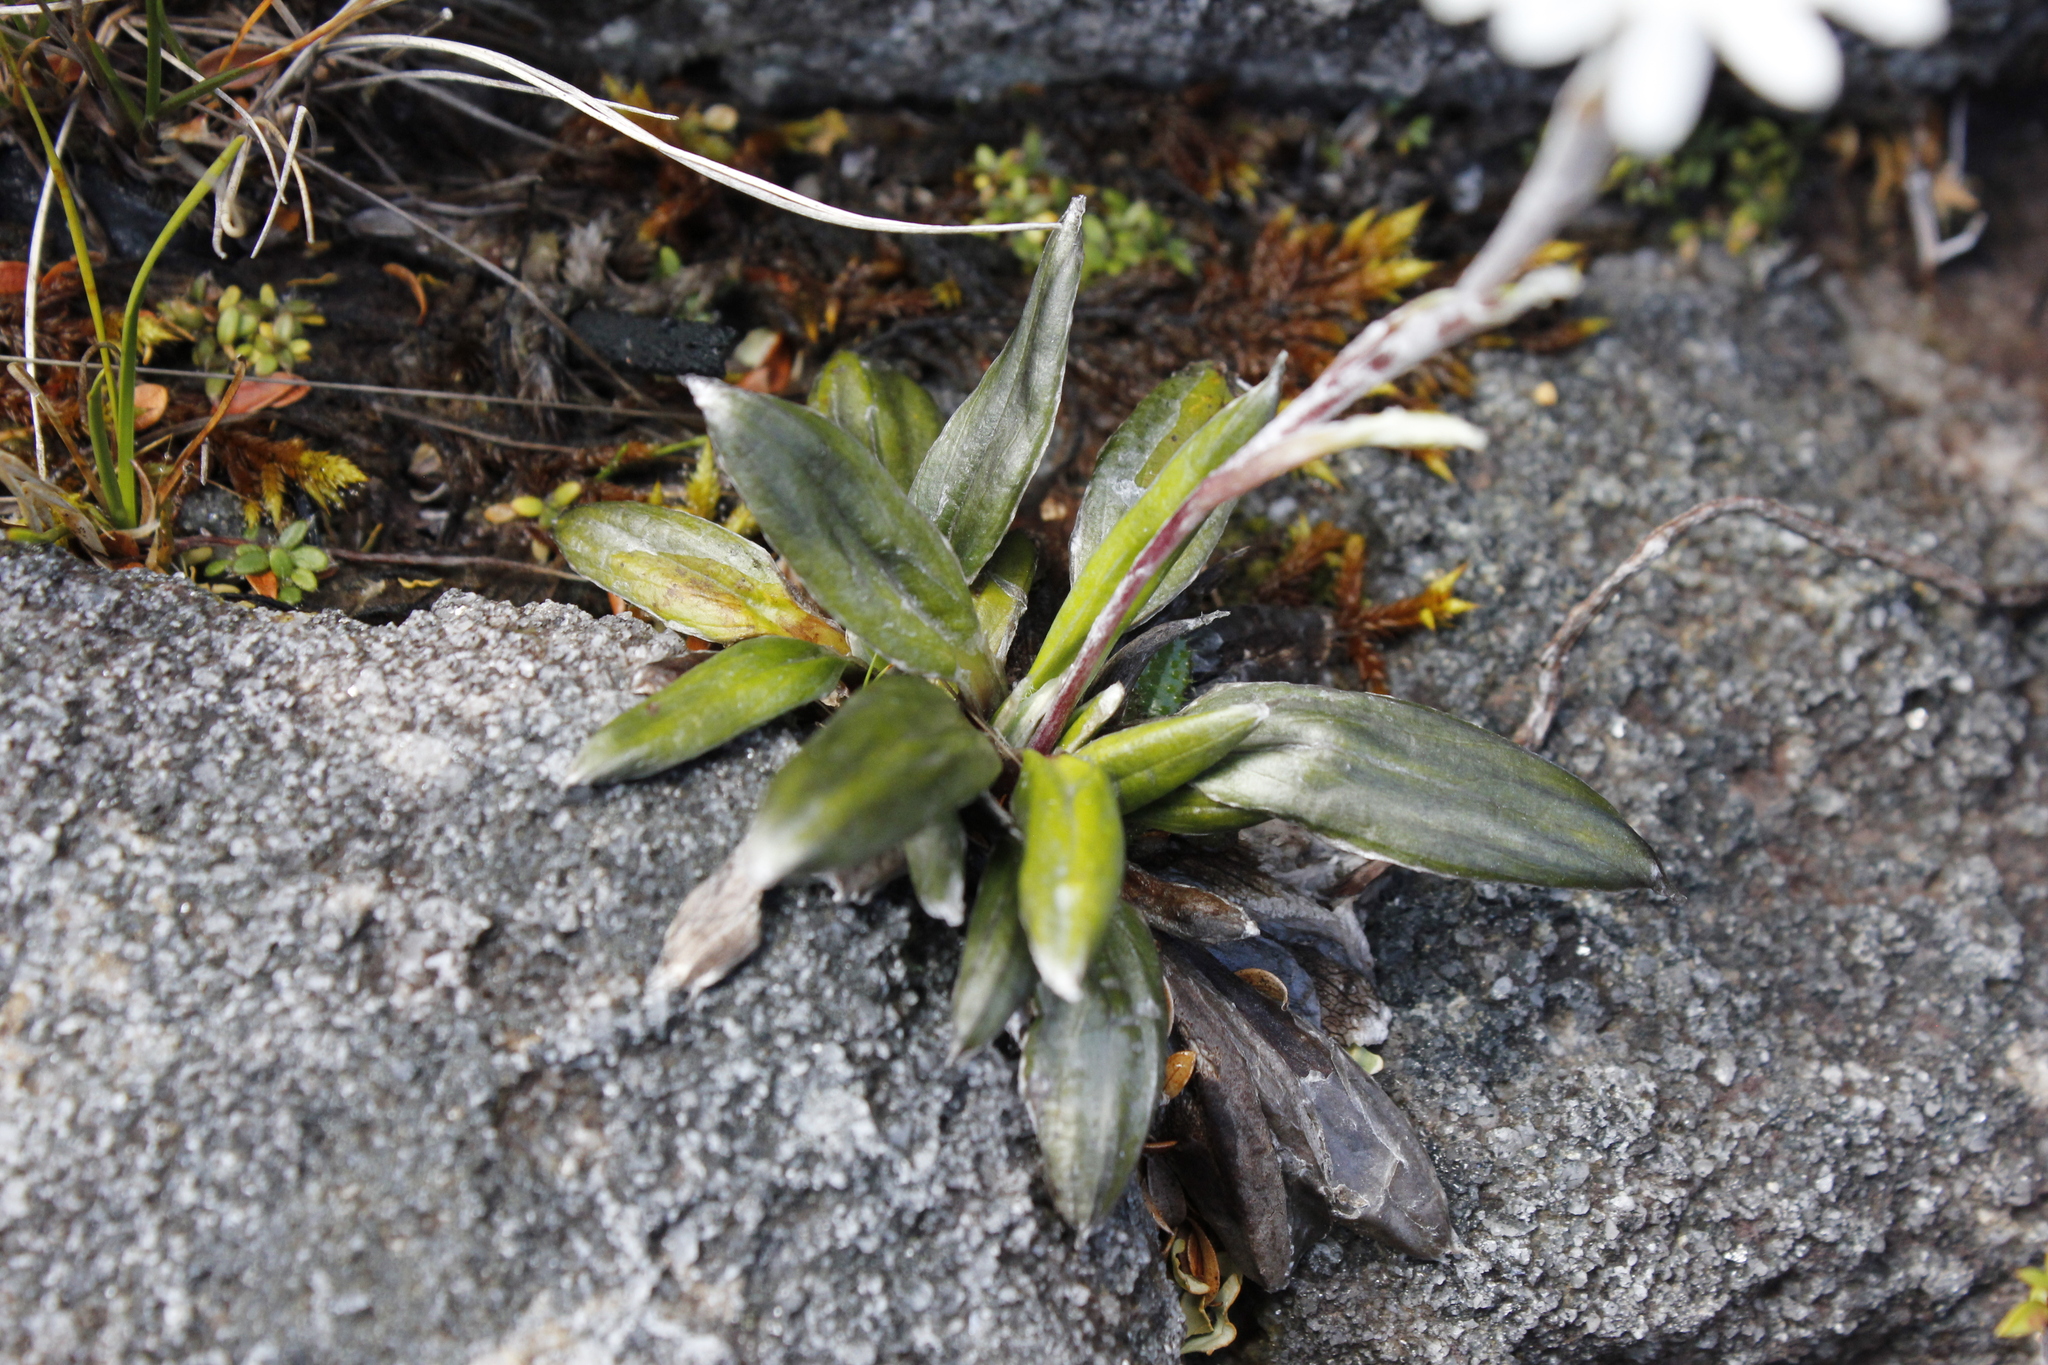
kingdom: Plantae
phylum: Tracheophyta
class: Magnoliopsida
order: Asterales
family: Asteraceae
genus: Celmisia
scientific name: Celmisia dubia
